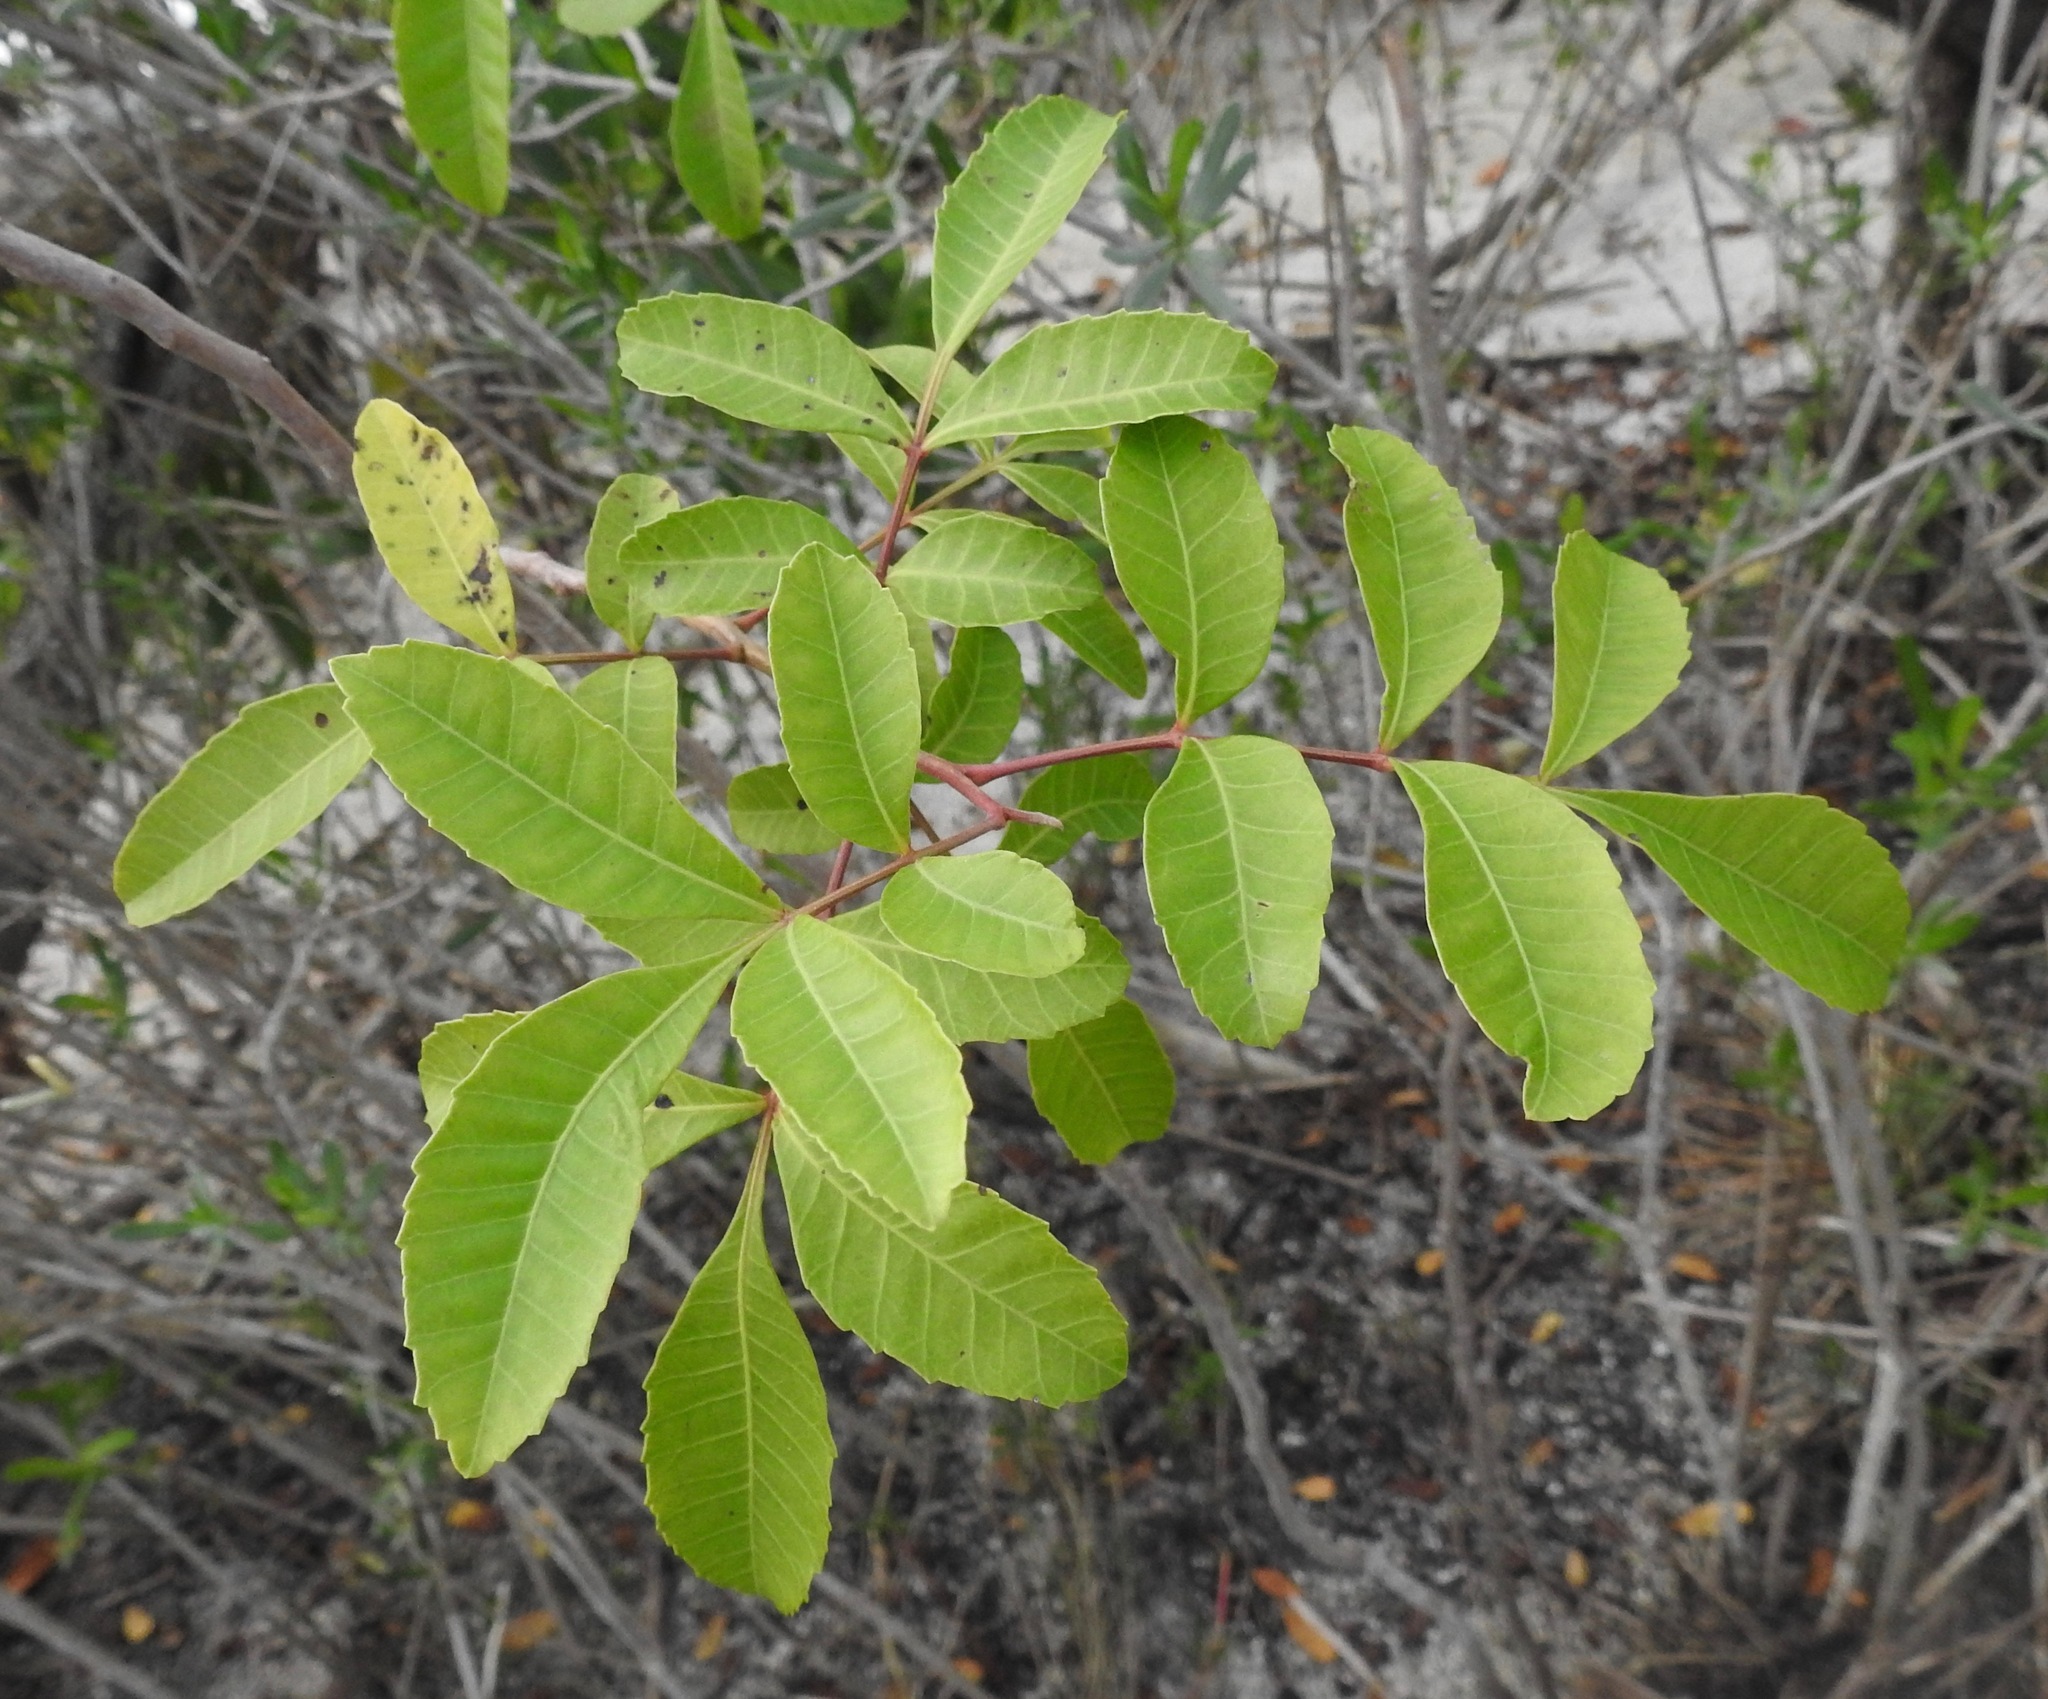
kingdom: Plantae
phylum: Tracheophyta
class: Magnoliopsida
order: Sapindales
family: Anacardiaceae
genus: Schinus
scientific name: Schinus terebinthifolia
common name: Brazilian peppertree
